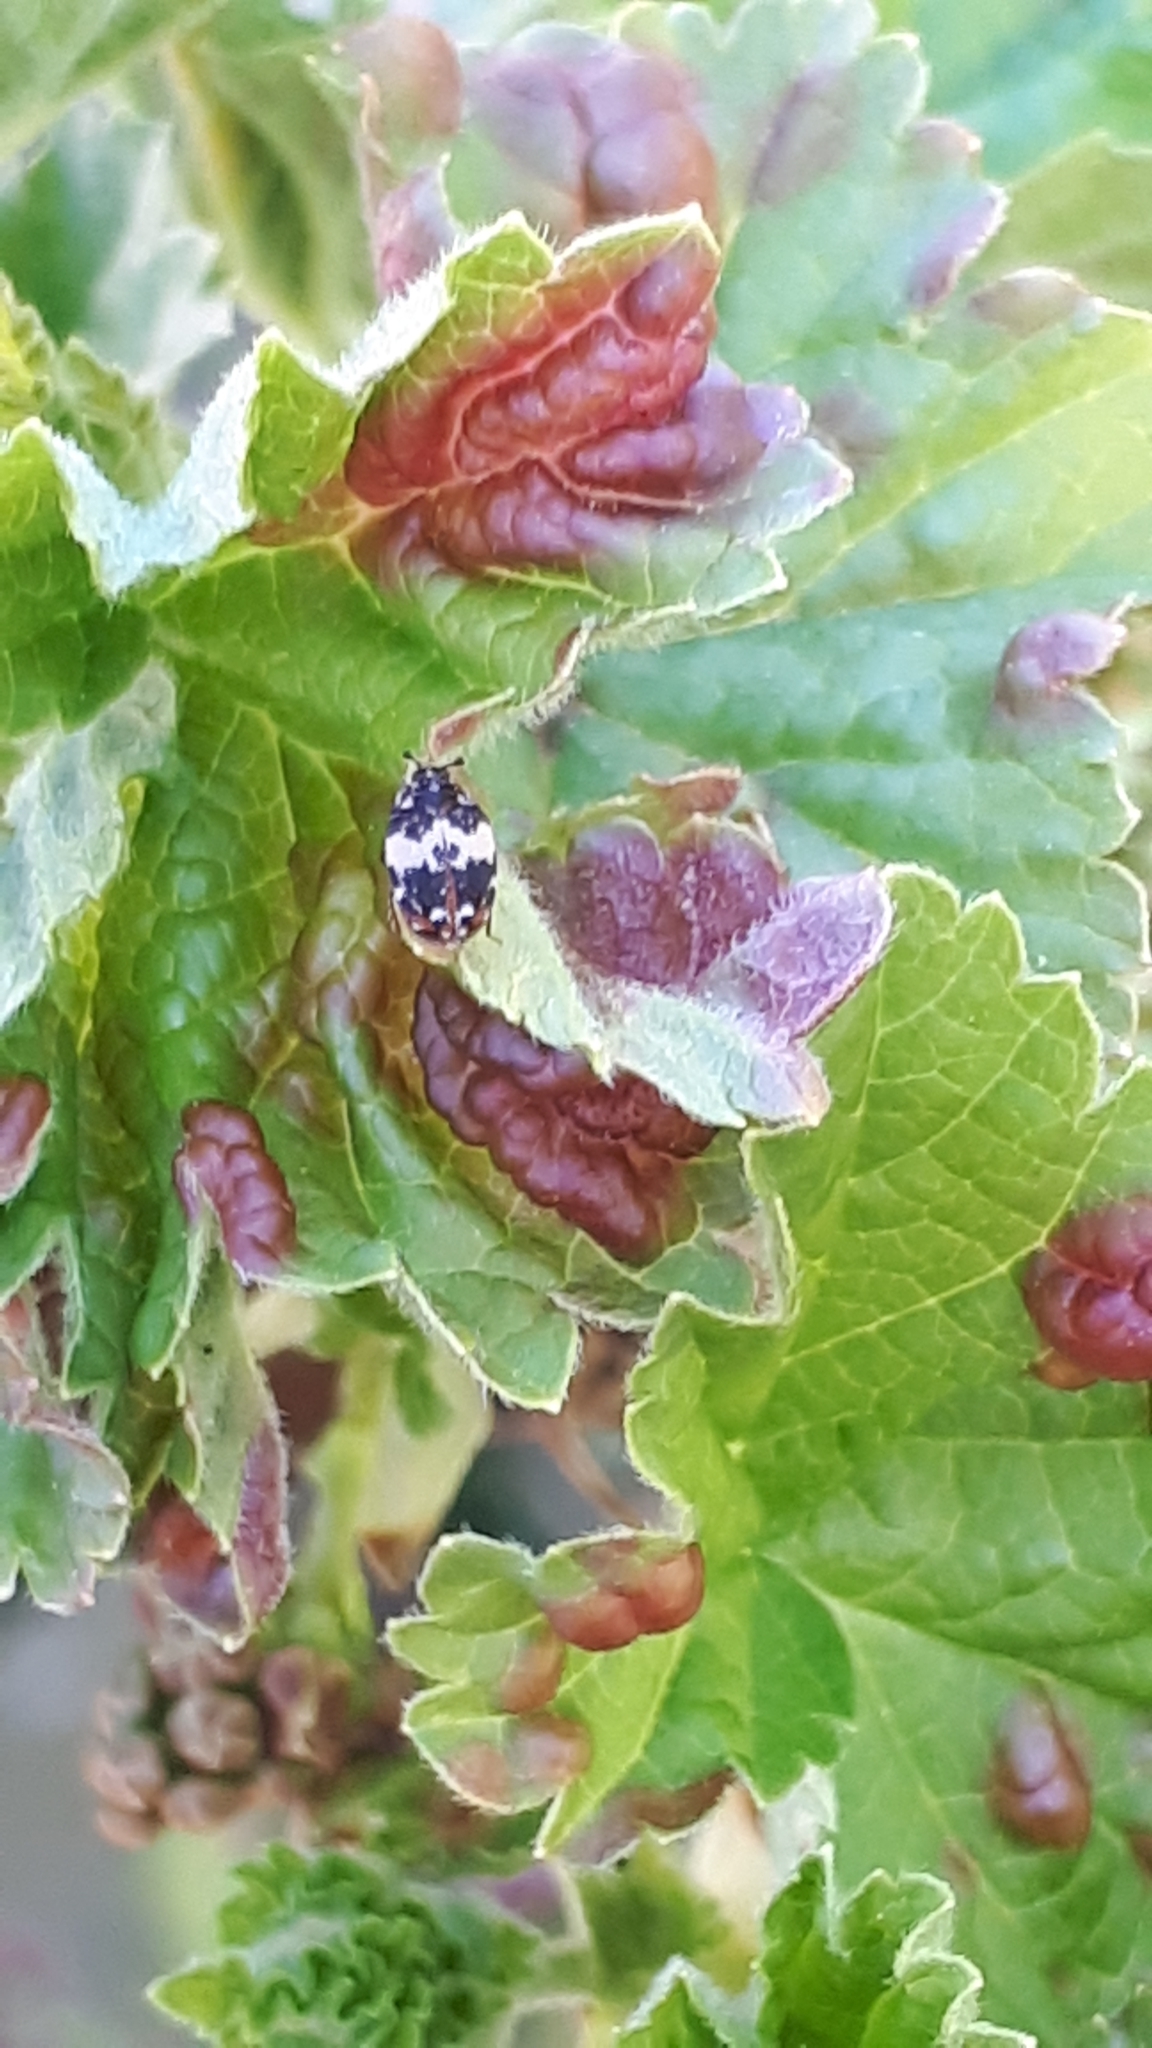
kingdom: Animalia
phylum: Arthropoda
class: Insecta
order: Coleoptera
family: Dermestidae
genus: Anthrenus
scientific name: Anthrenus pimpinellae
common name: Dermestid beetle
